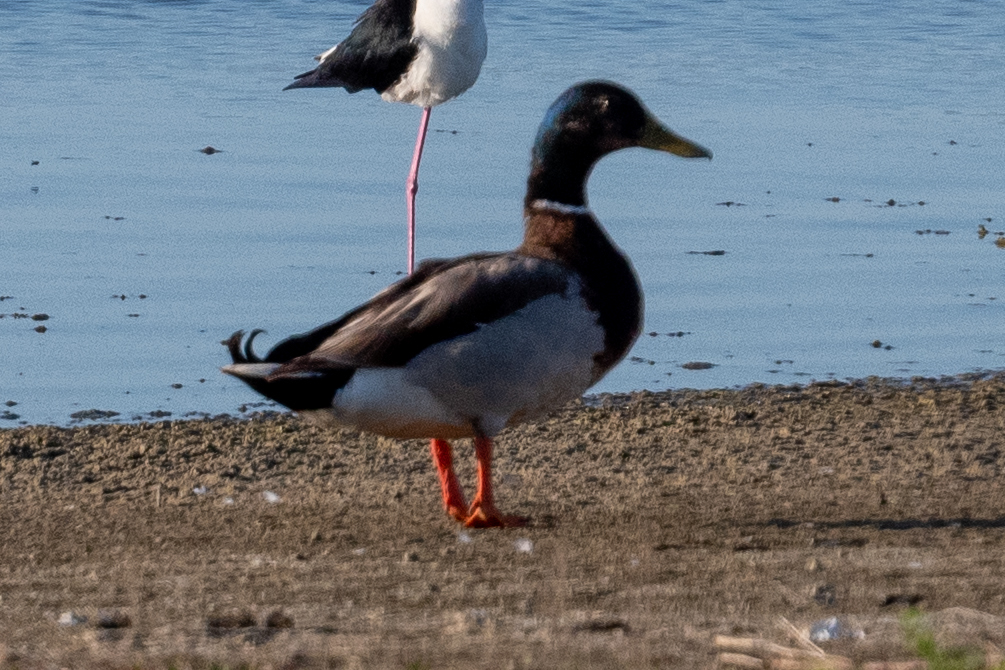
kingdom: Animalia
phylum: Chordata
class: Aves
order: Anseriformes
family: Anatidae
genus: Anas
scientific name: Anas platyrhynchos
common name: Mallard
